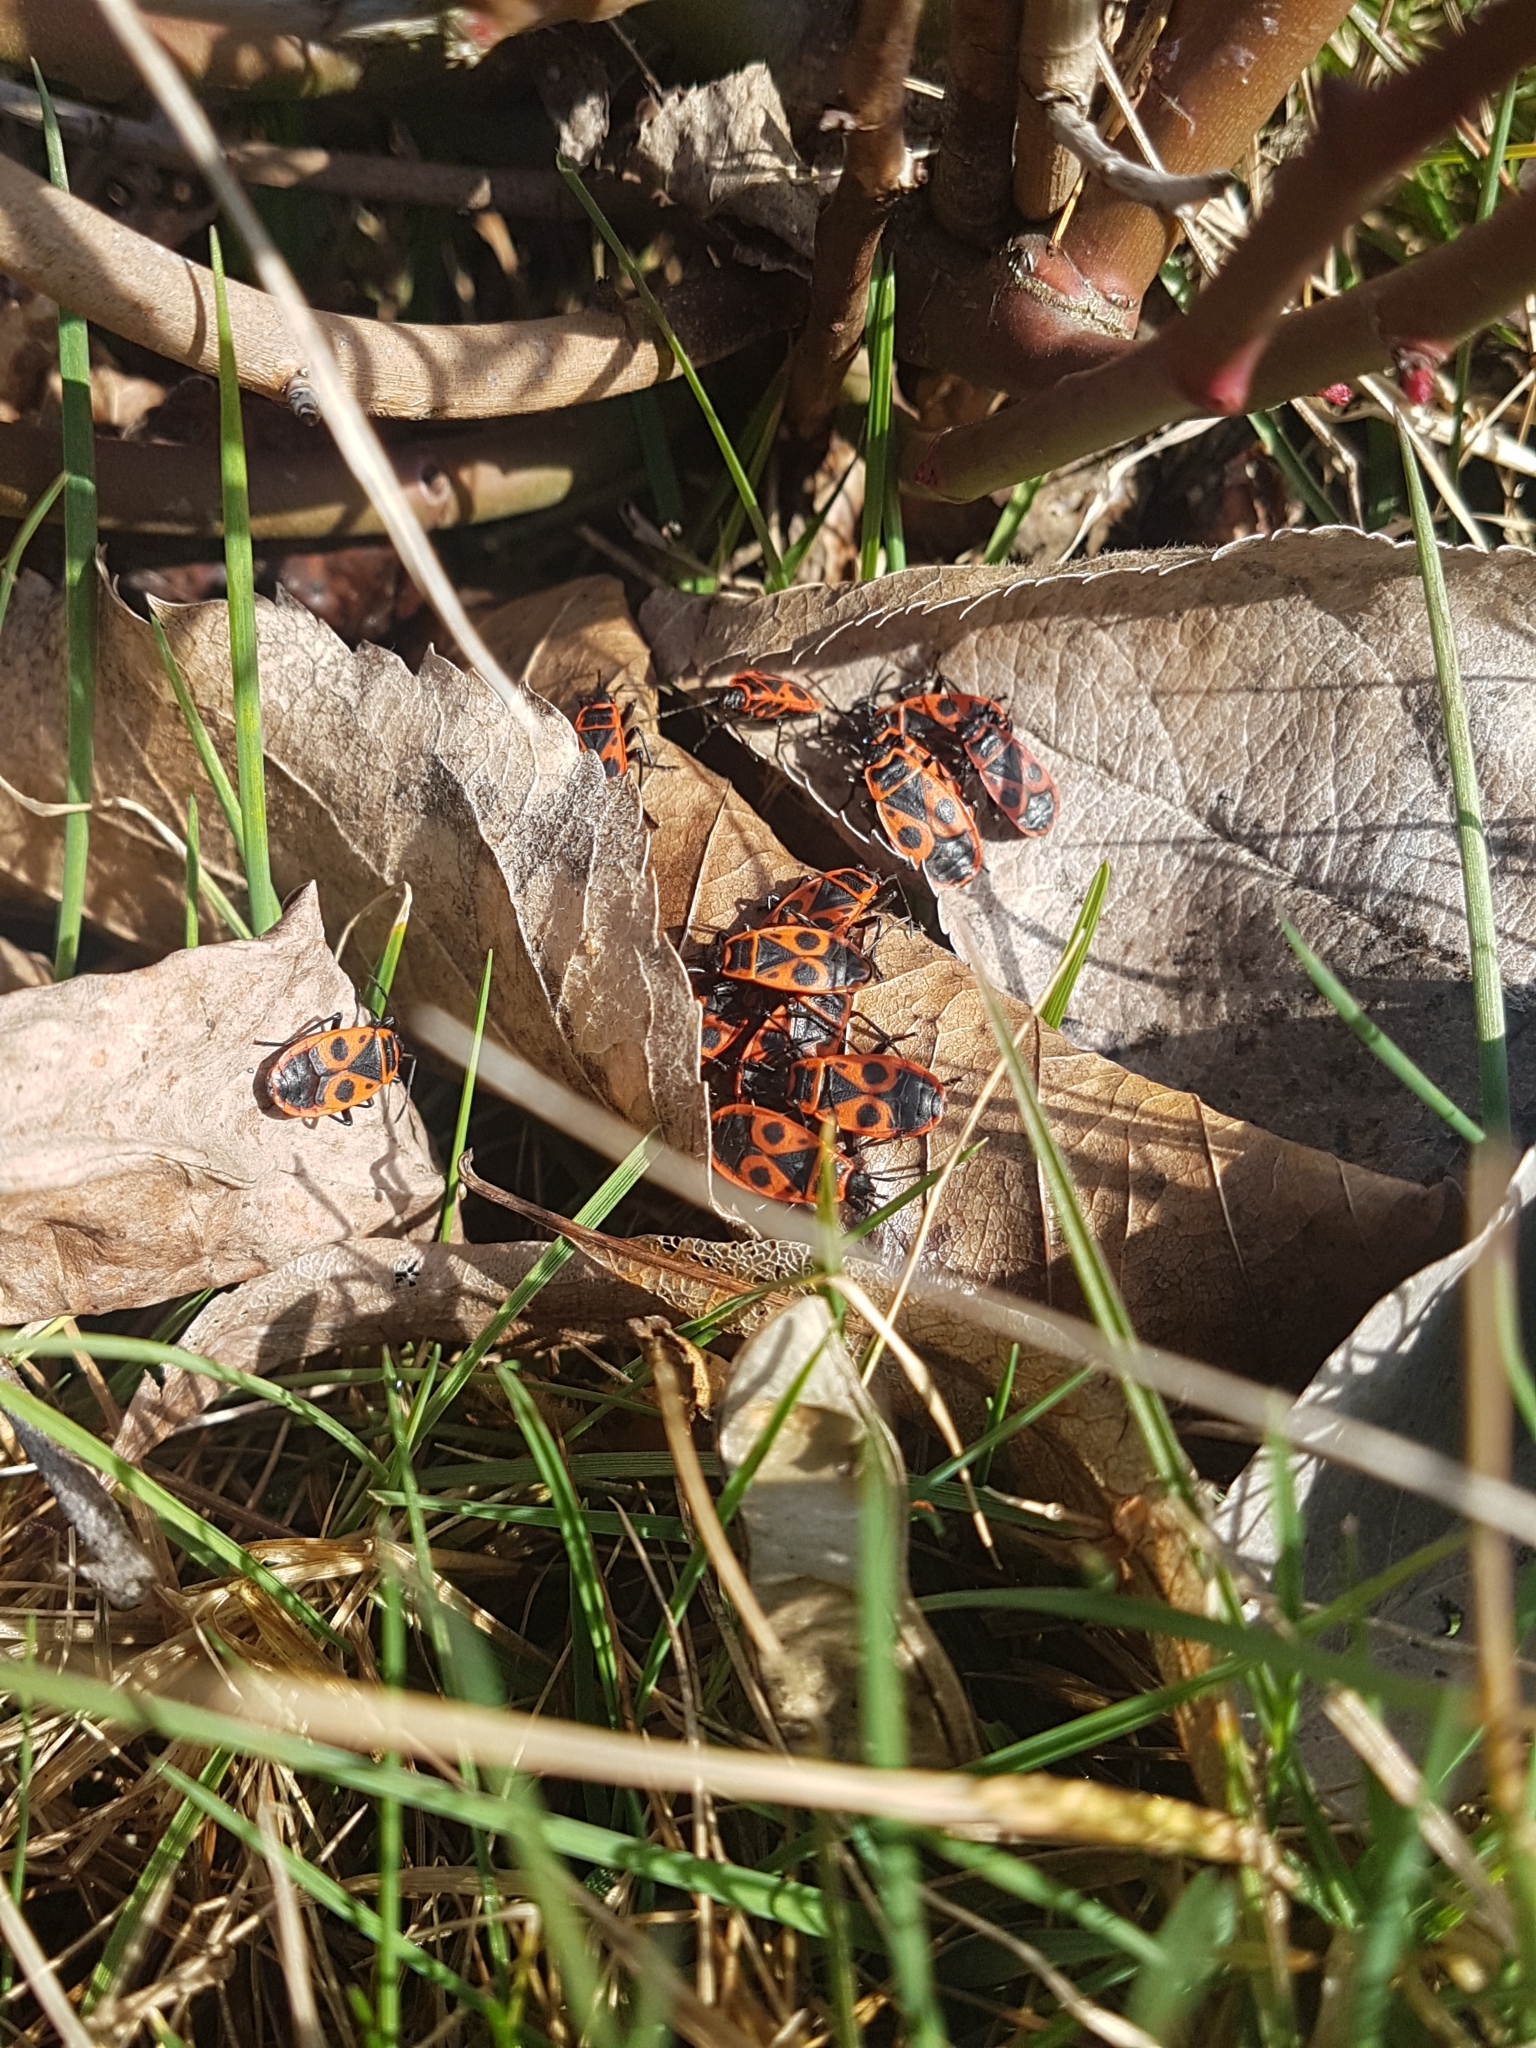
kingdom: Animalia
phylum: Arthropoda
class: Insecta
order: Hemiptera
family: Pyrrhocoridae
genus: Pyrrhocoris
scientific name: Pyrrhocoris apterus
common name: Firebug
